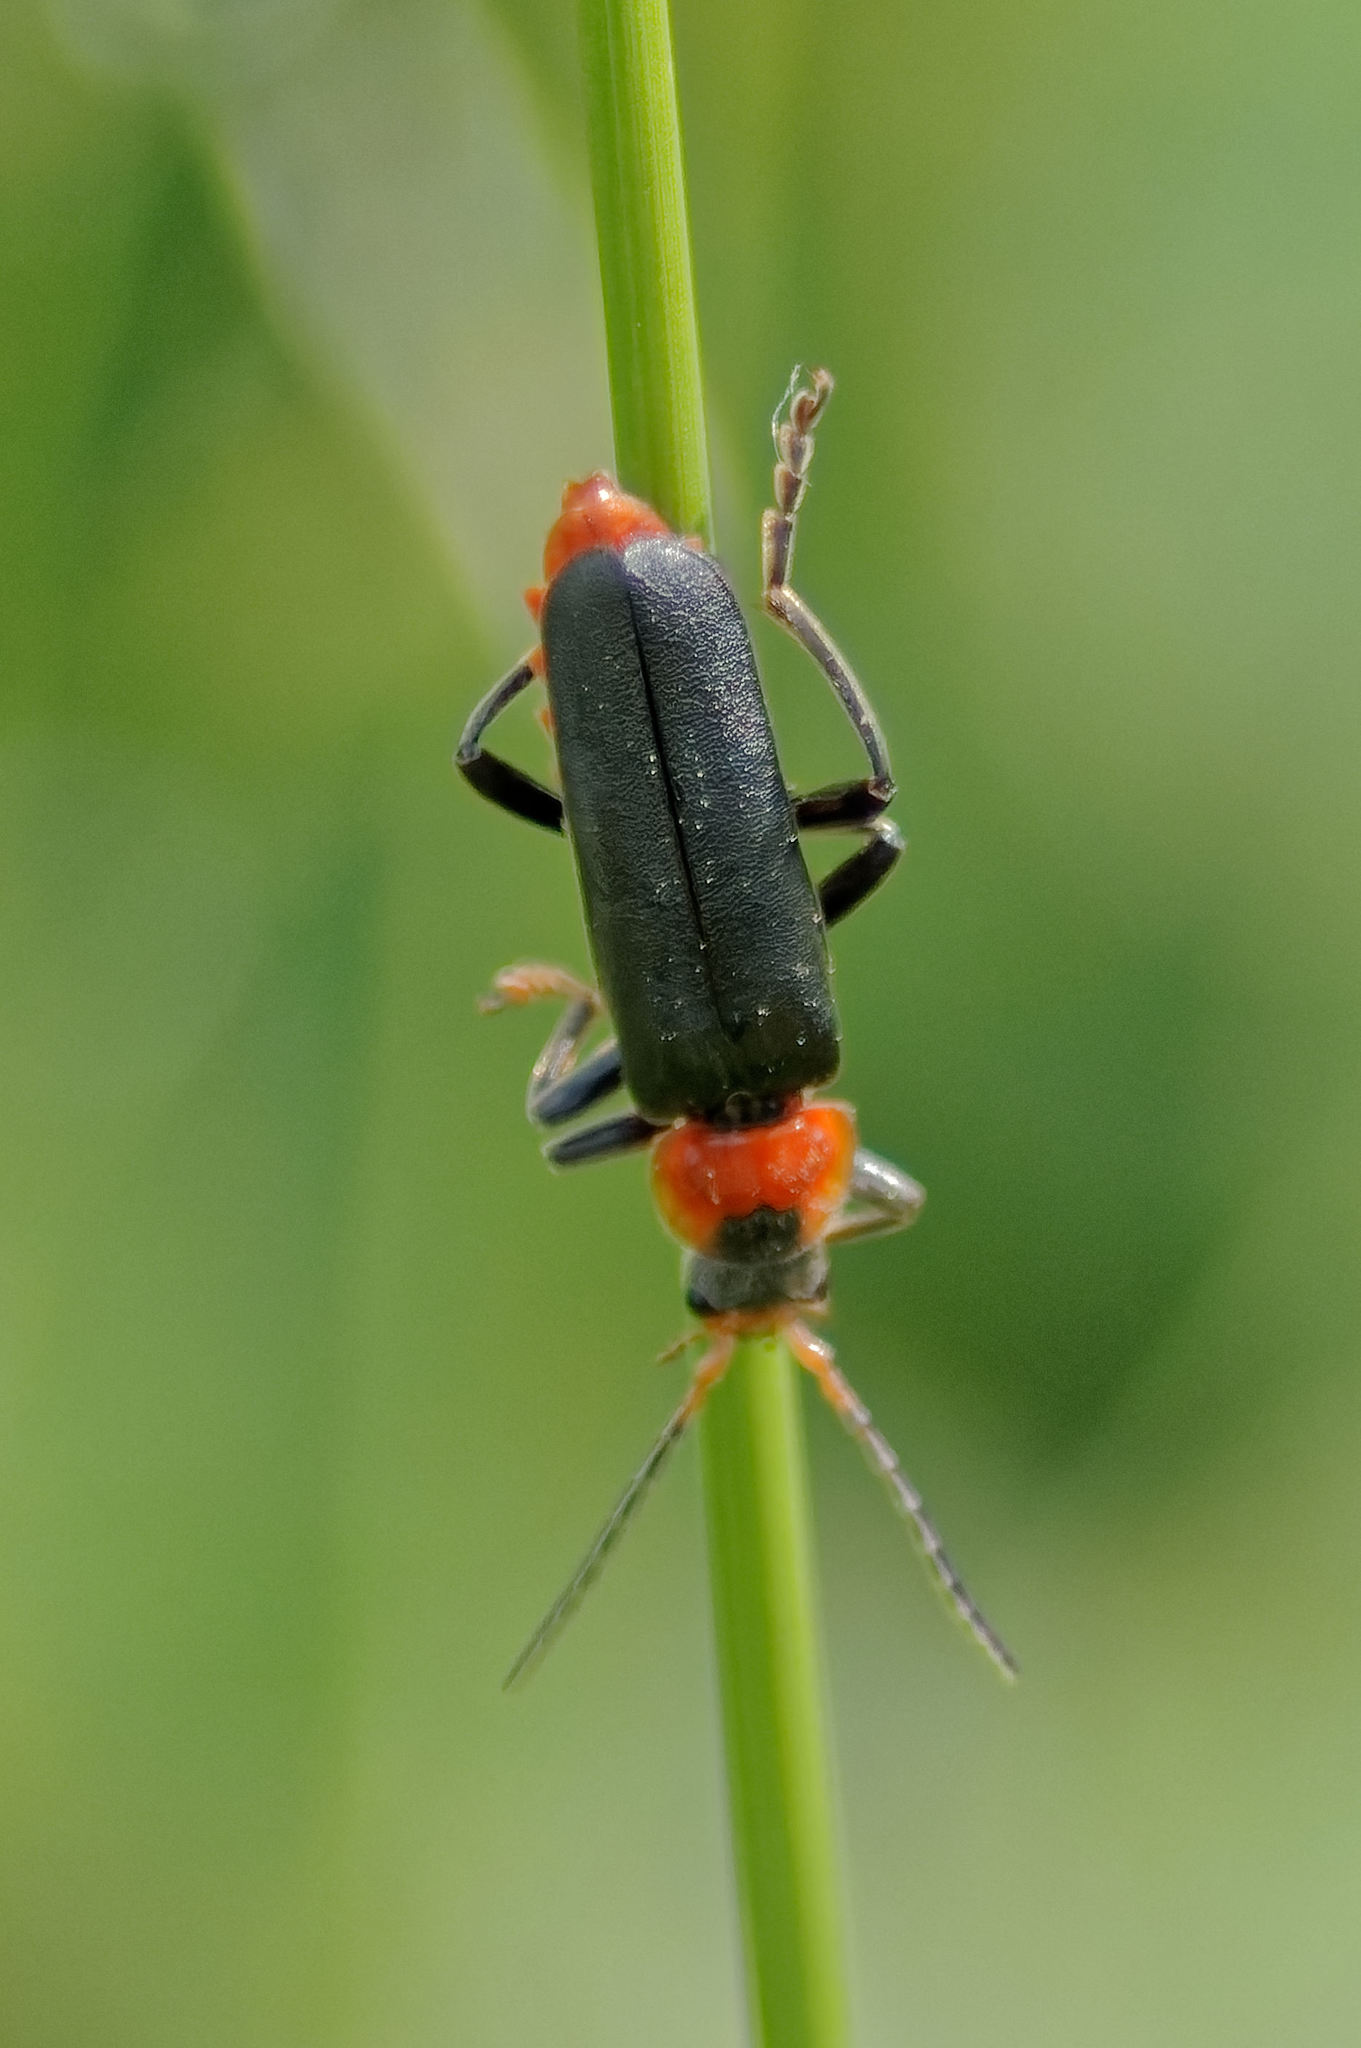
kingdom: Animalia
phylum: Arthropoda
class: Insecta
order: Coleoptera
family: Cantharidae
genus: Cantharis
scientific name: Cantharis fusca
